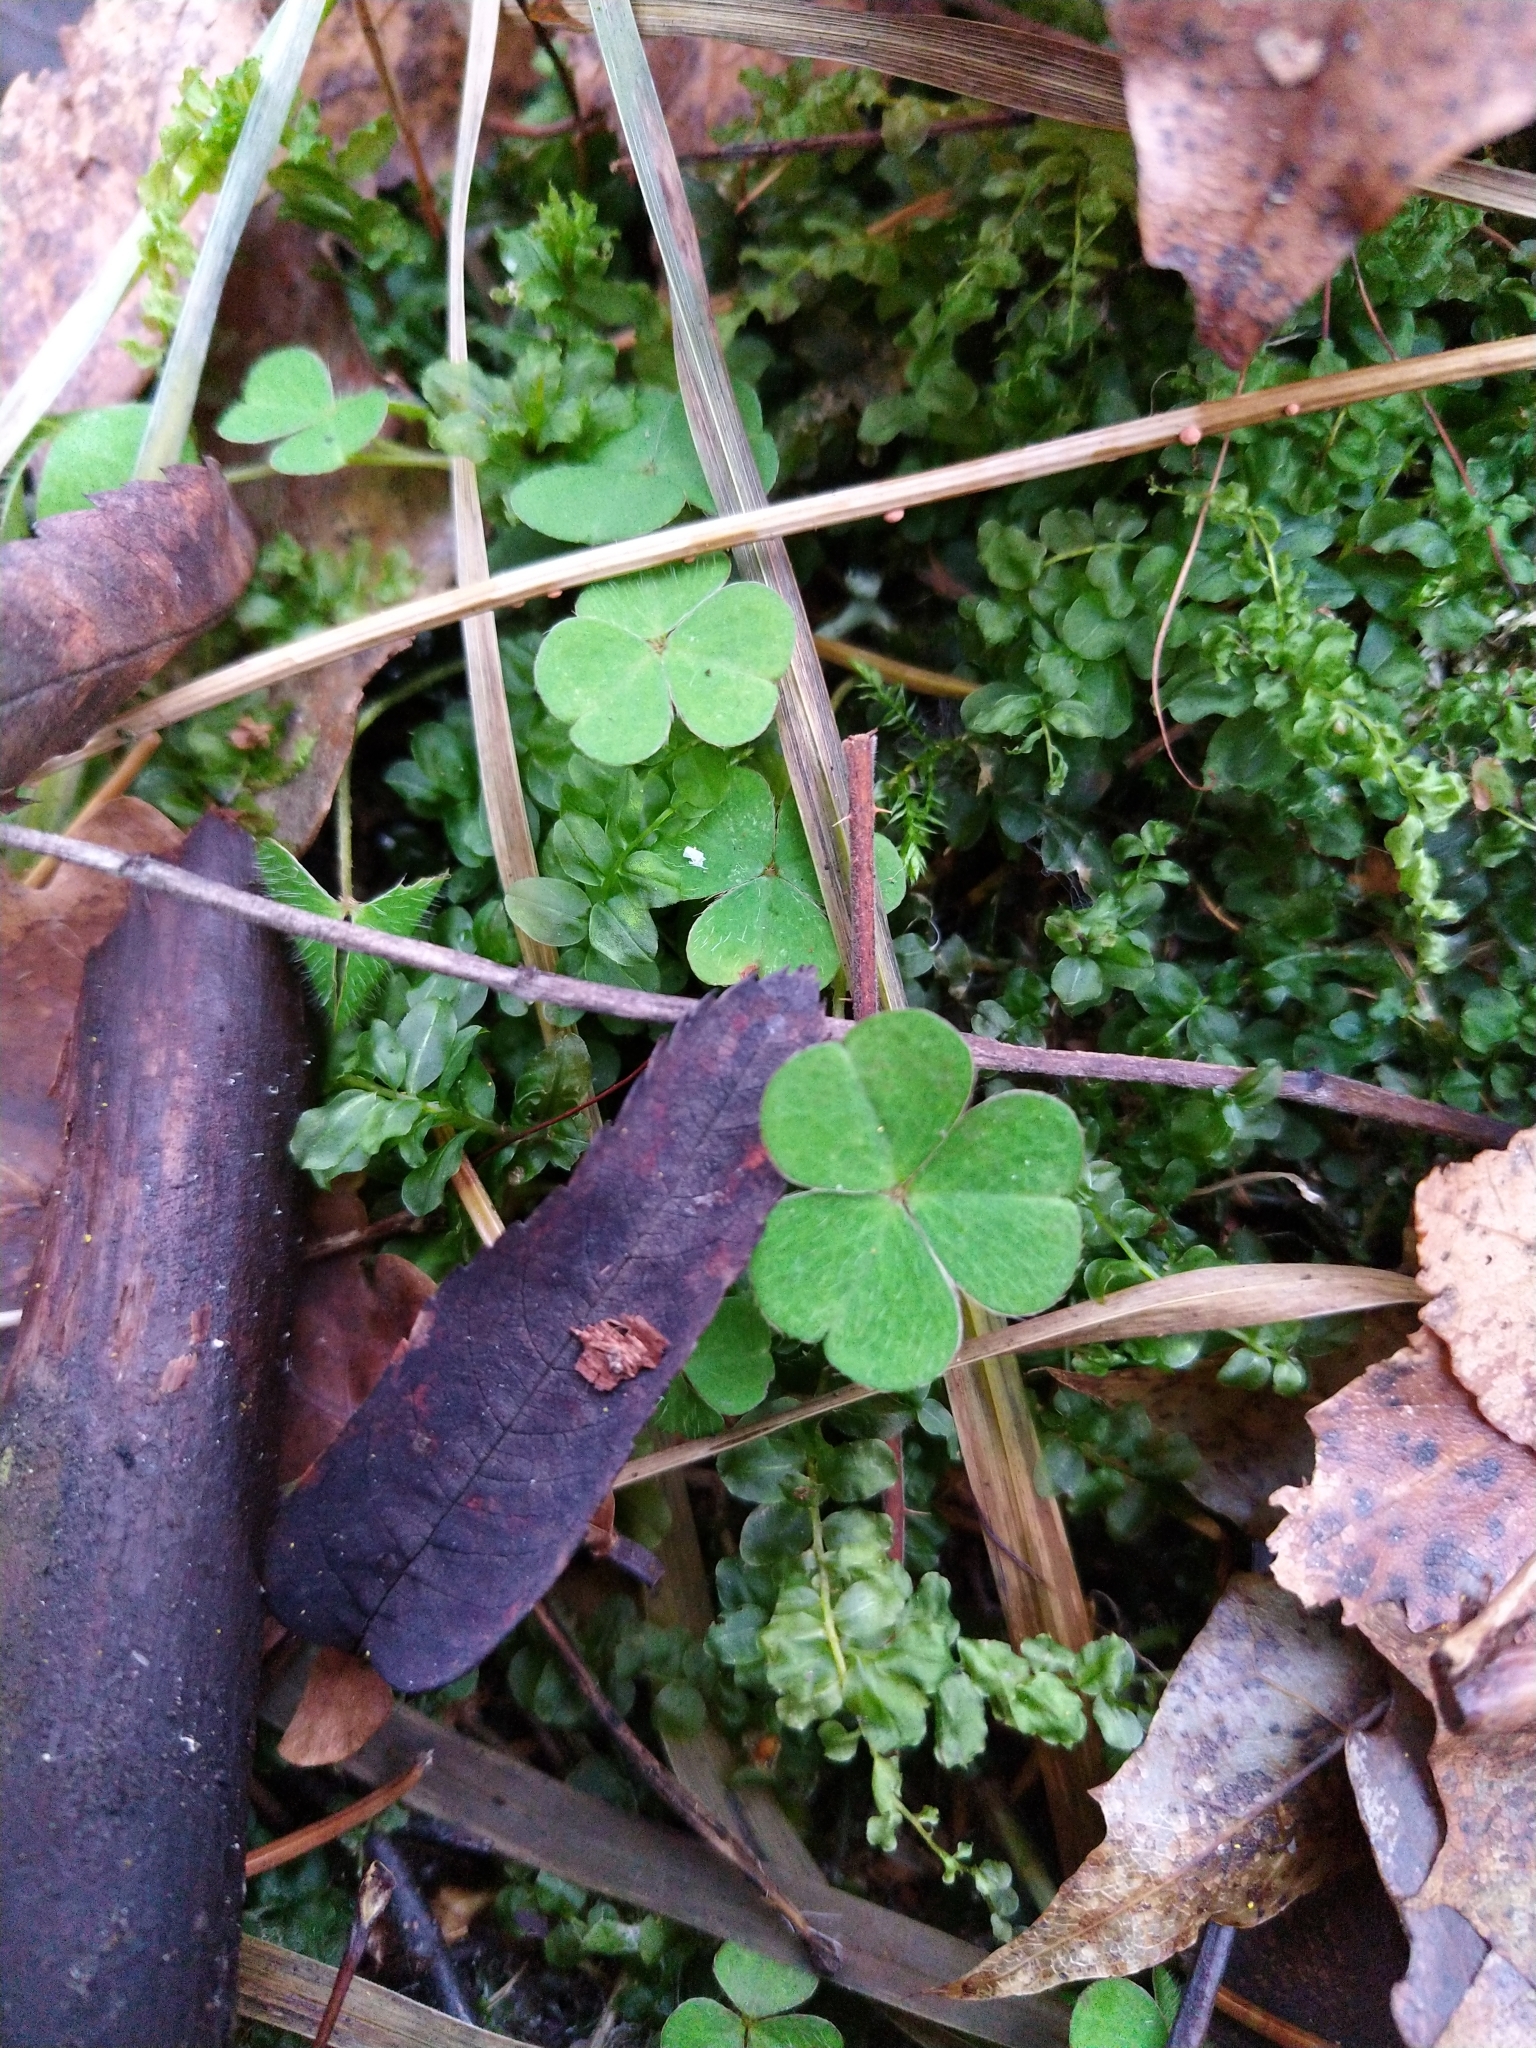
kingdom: Plantae
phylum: Tracheophyta
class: Magnoliopsida
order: Oxalidales
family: Oxalidaceae
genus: Oxalis
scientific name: Oxalis acetosella
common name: Wood-sorrel
